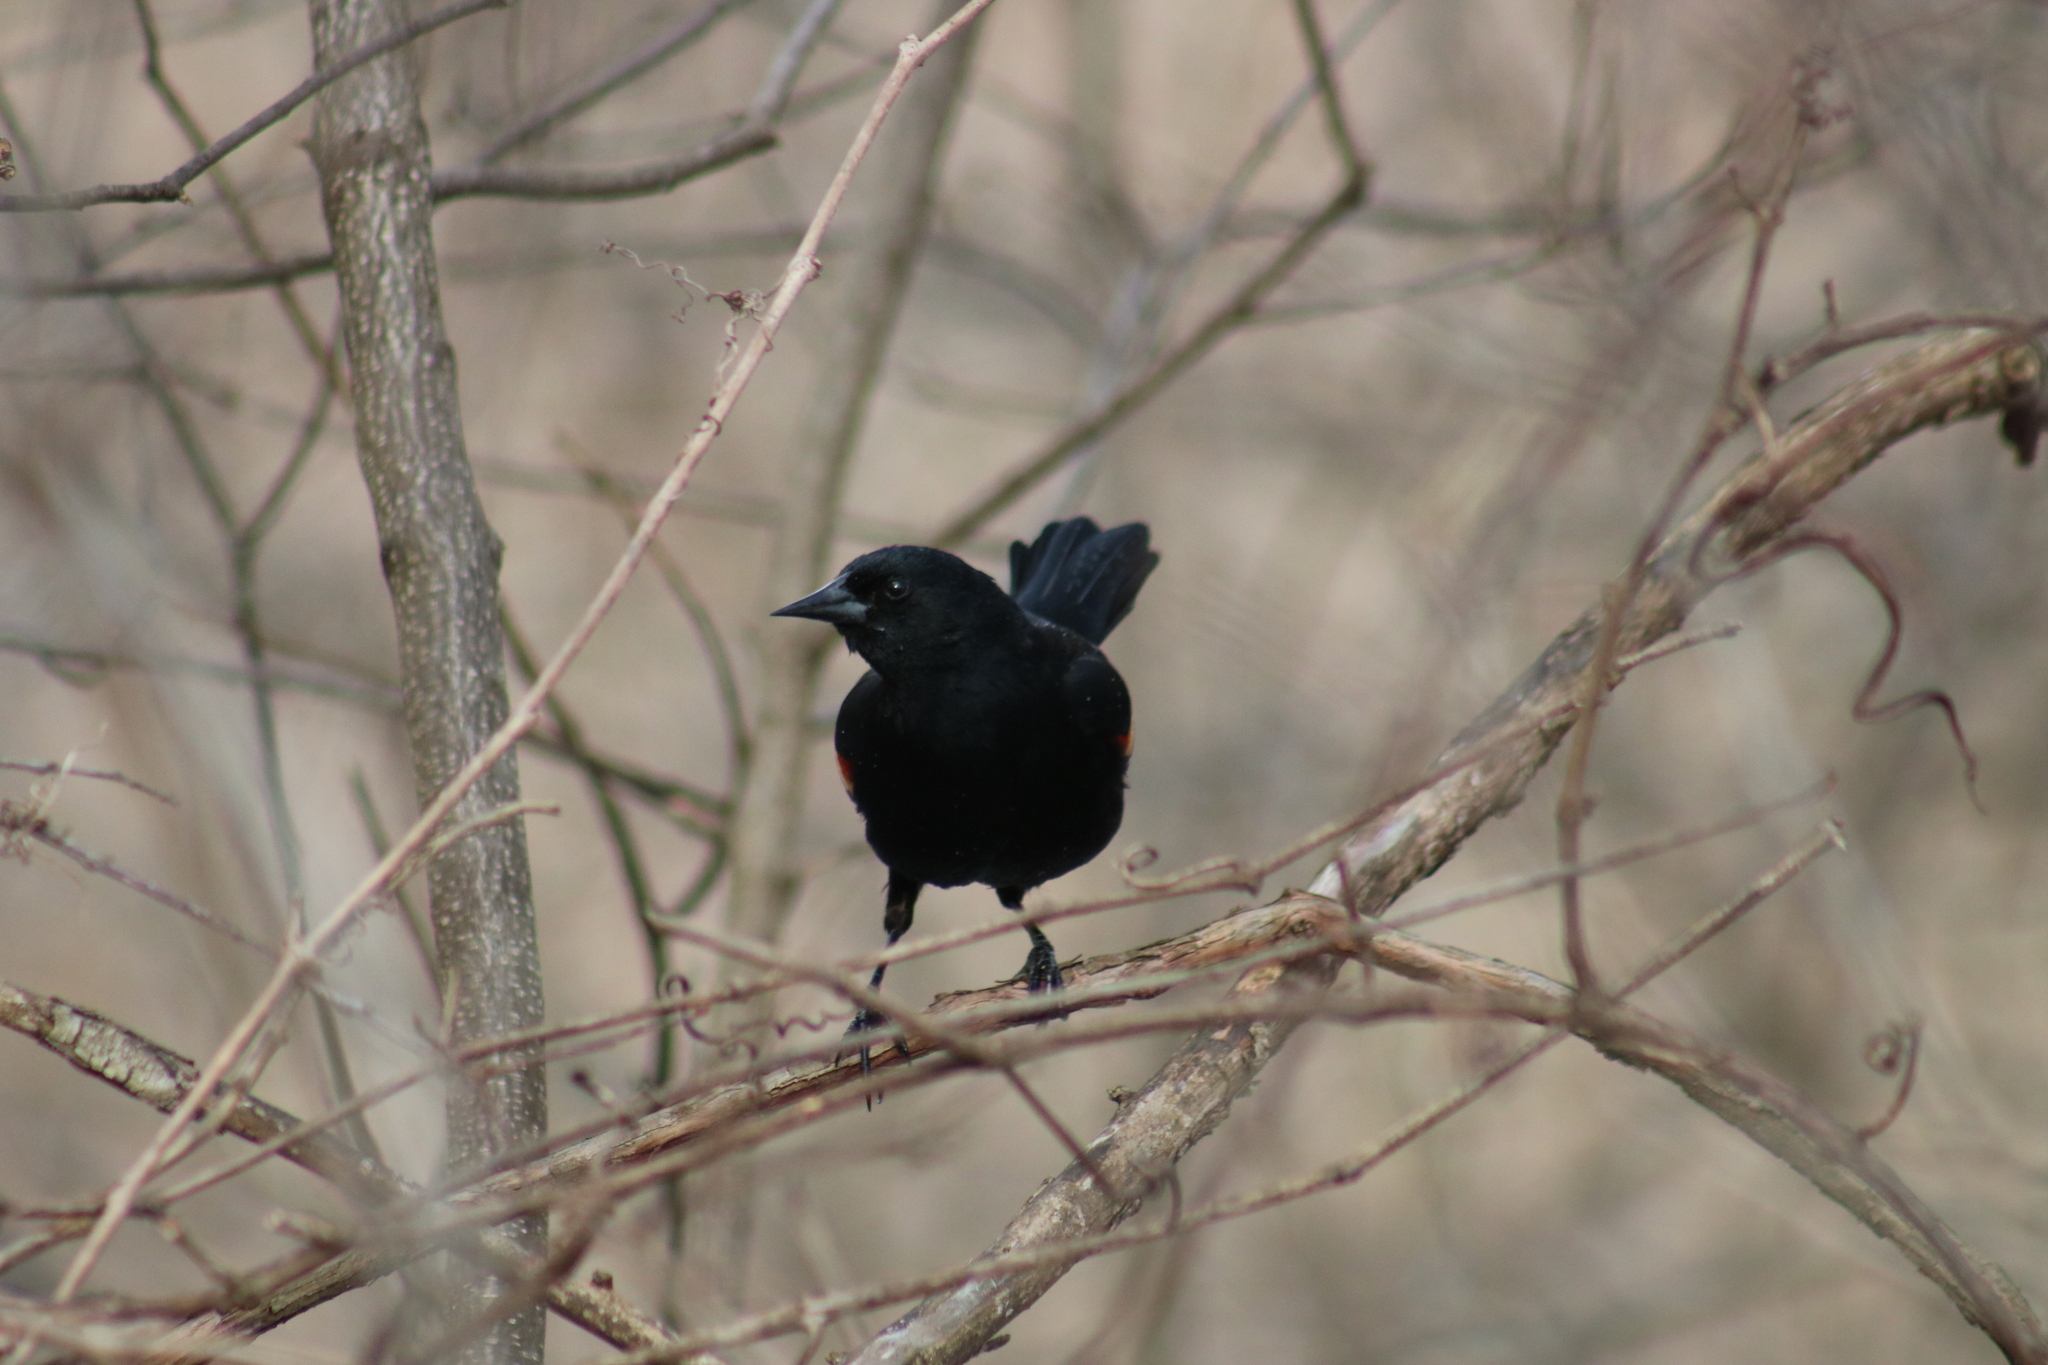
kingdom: Animalia
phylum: Chordata
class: Aves
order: Passeriformes
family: Icteridae
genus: Agelaius
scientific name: Agelaius phoeniceus
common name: Red-winged blackbird
